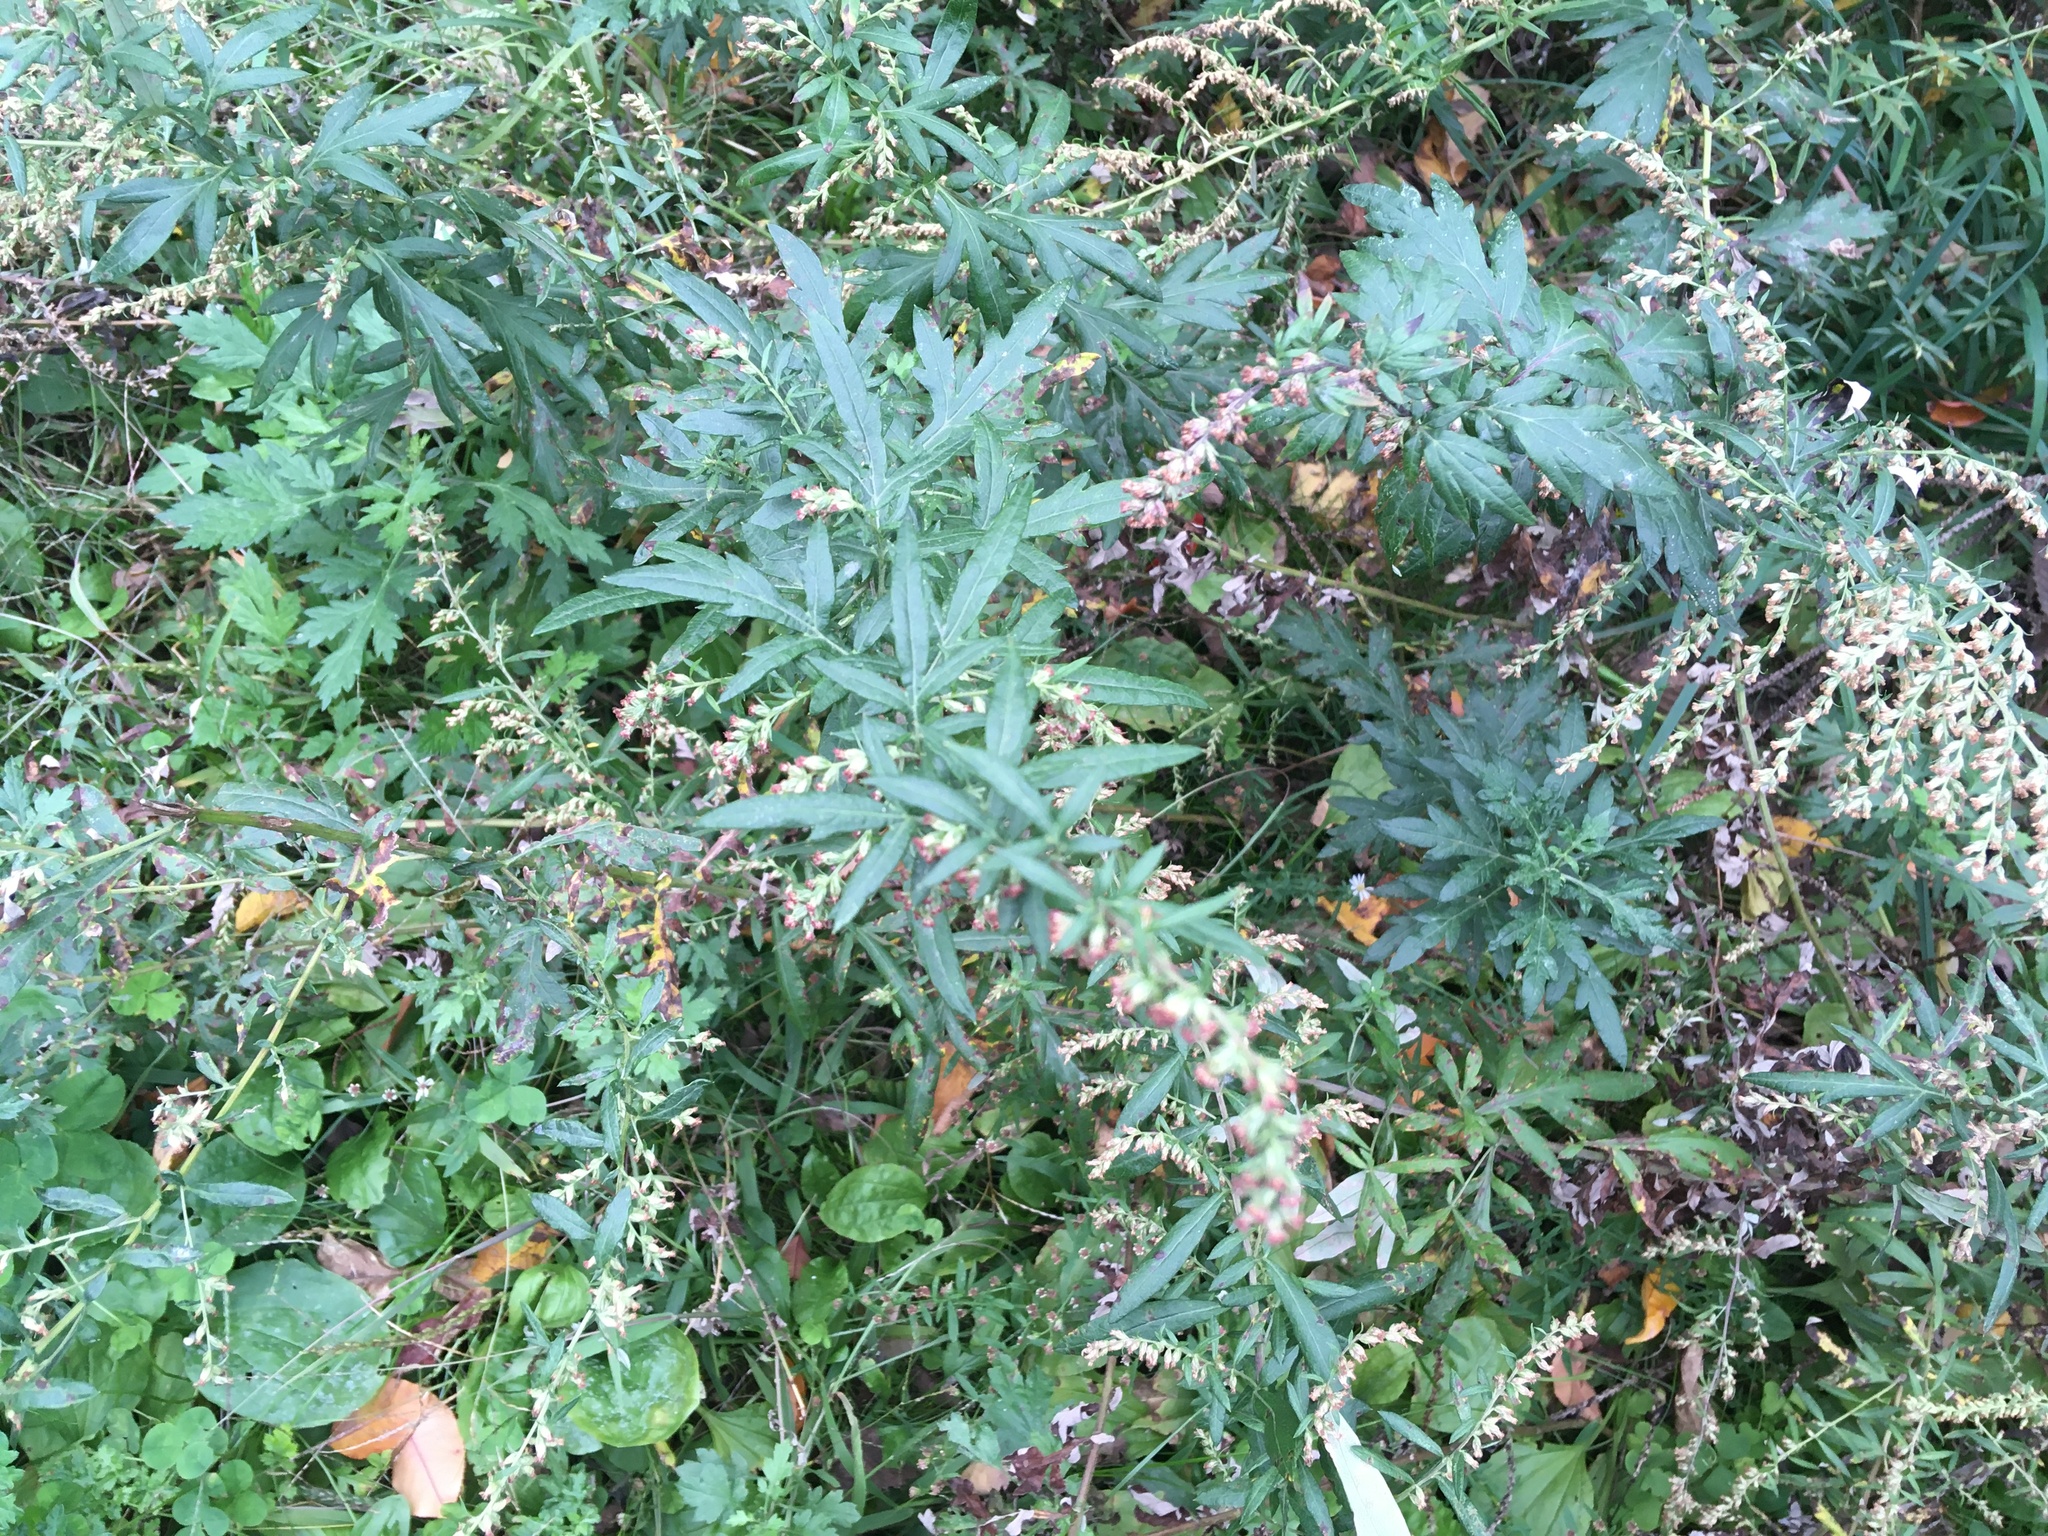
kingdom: Plantae
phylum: Tracheophyta
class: Magnoliopsida
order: Asterales
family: Asteraceae
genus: Artemisia
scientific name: Artemisia vulgaris
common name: Mugwort
